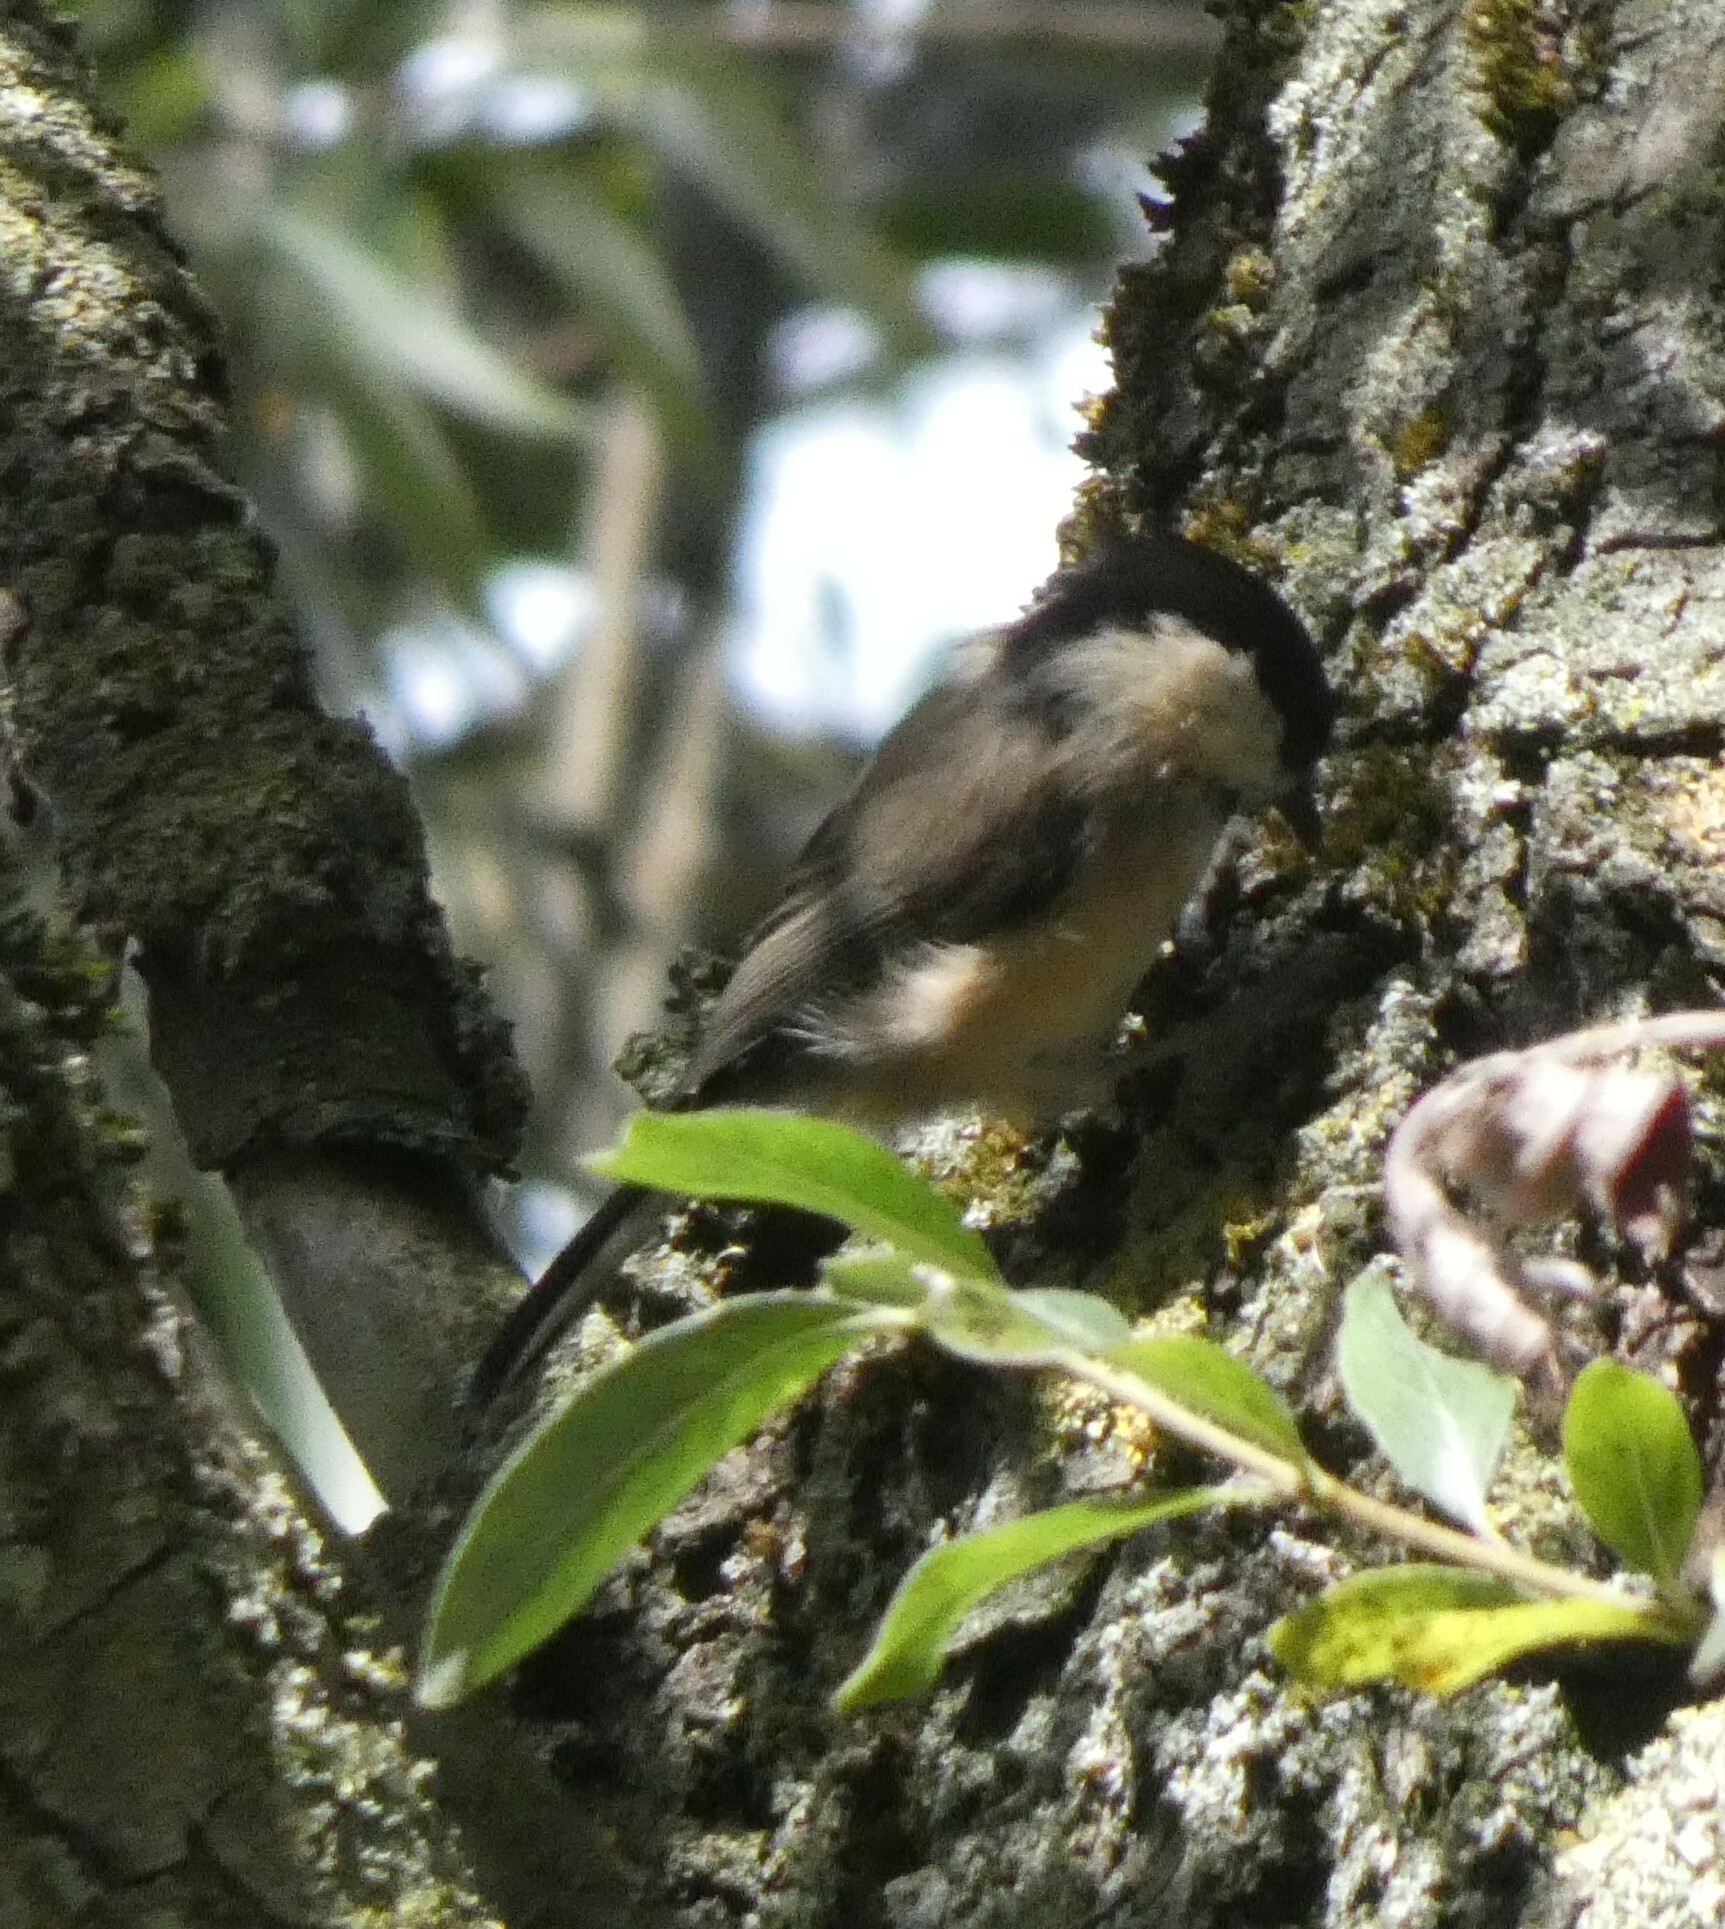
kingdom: Animalia
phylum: Chordata
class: Aves
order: Passeriformes
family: Paridae
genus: Poecile
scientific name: Poecile montanus
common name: Willow tit
